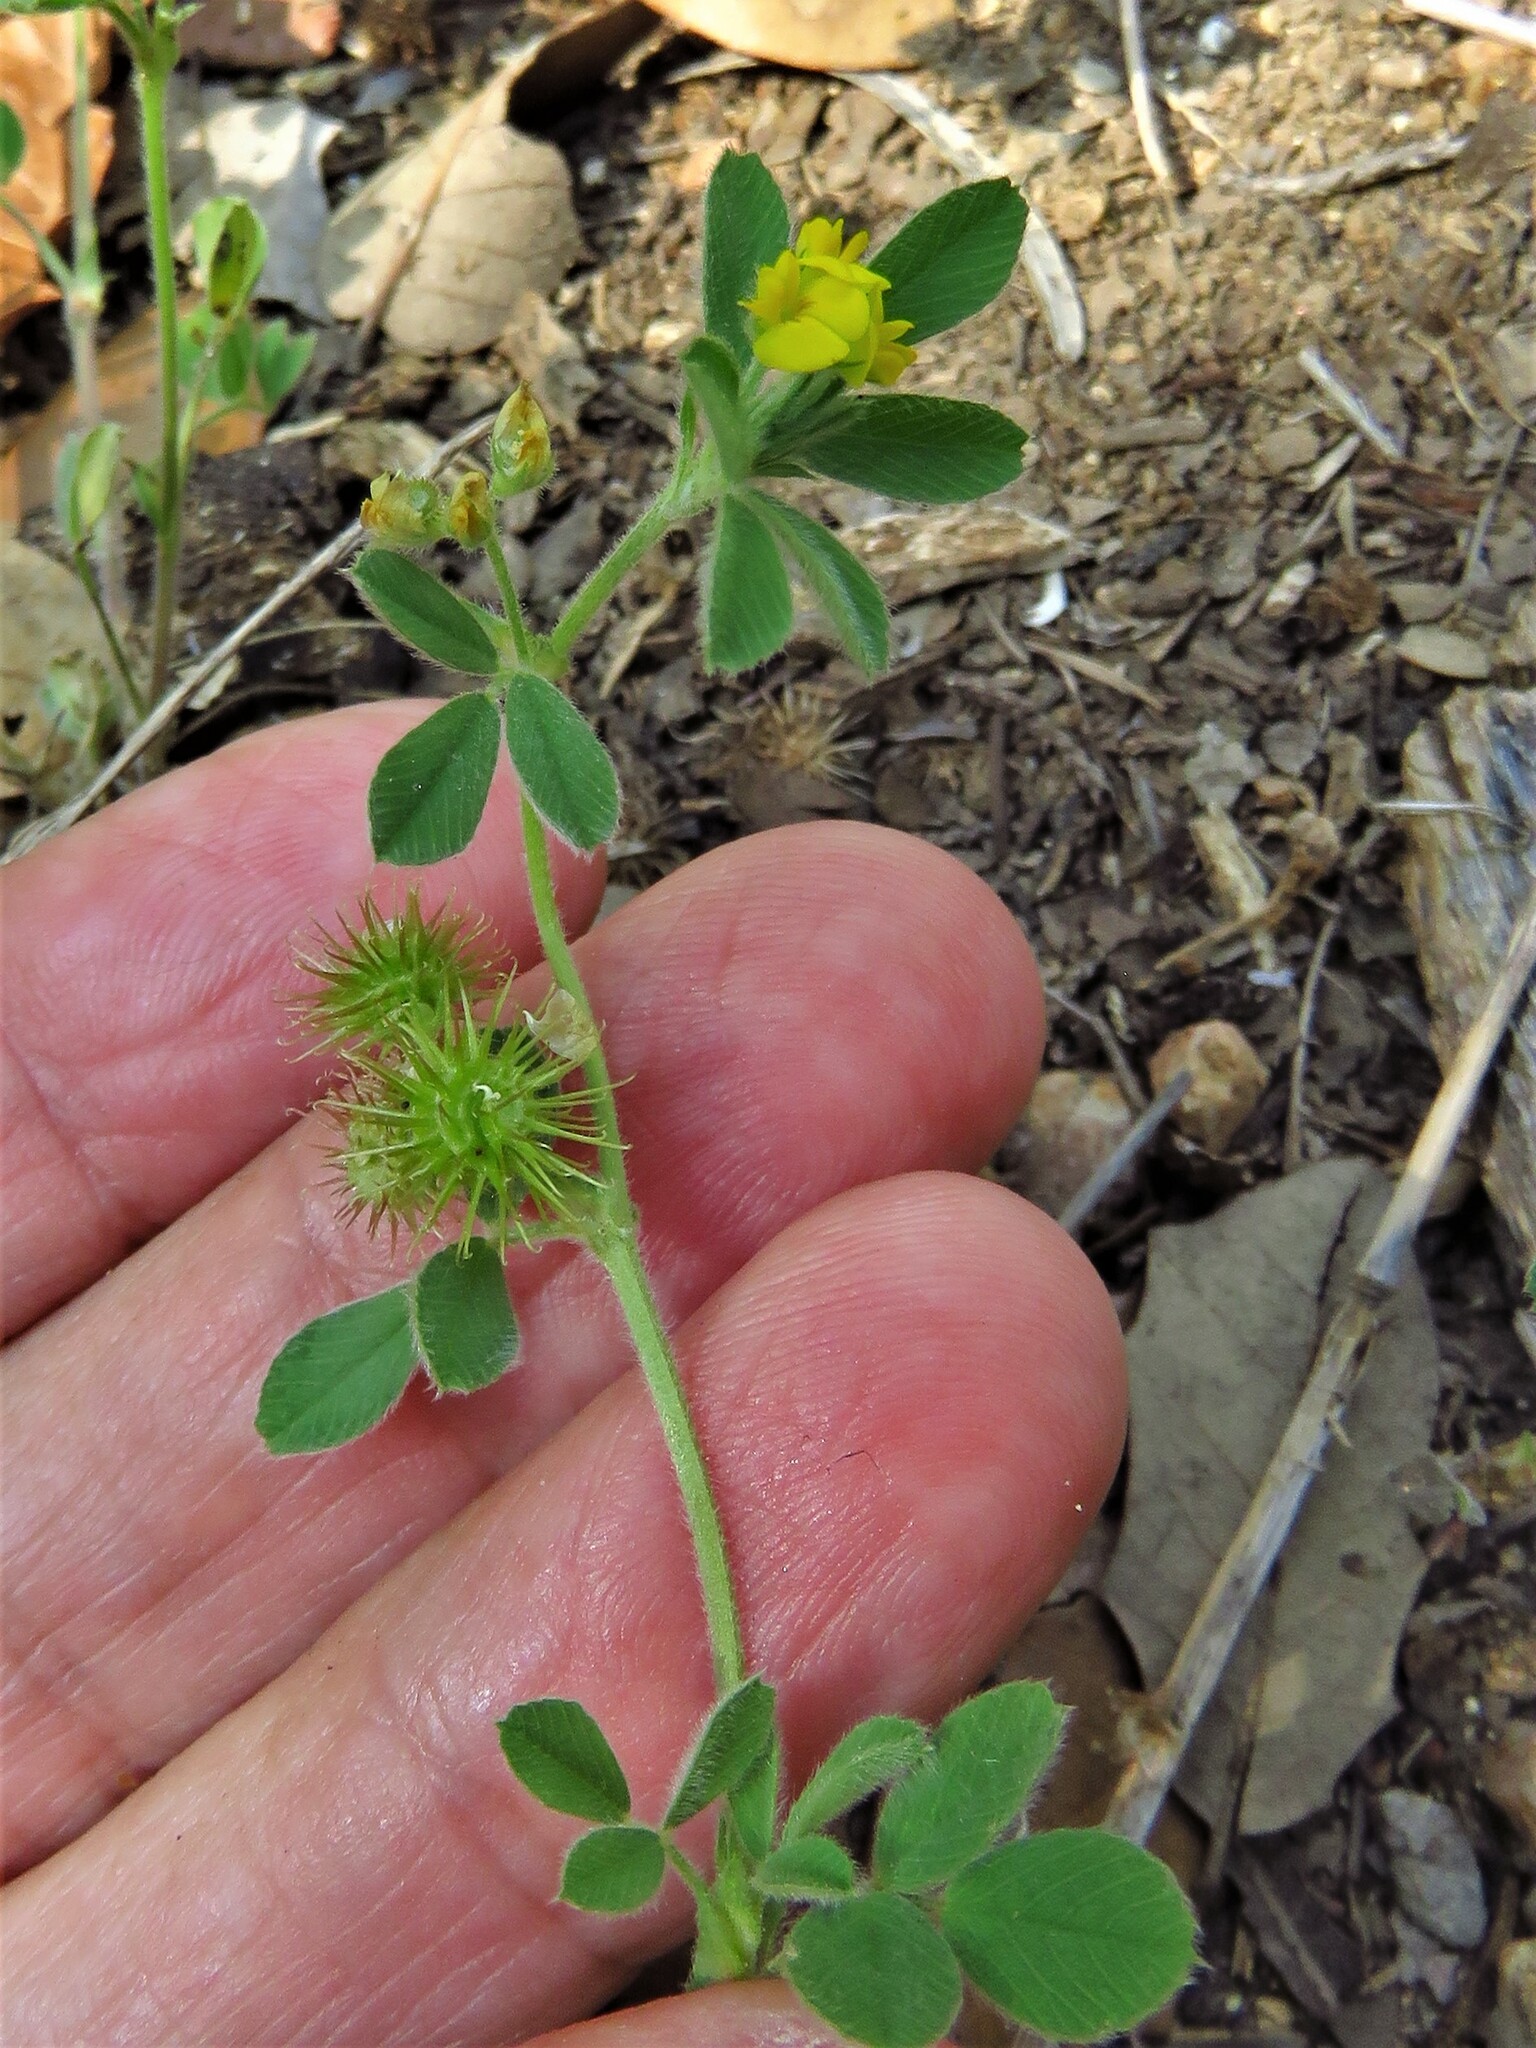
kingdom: Plantae
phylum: Tracheophyta
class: Magnoliopsida
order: Fabales
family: Fabaceae
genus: Medicago
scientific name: Medicago minima
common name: Little bur-clover
